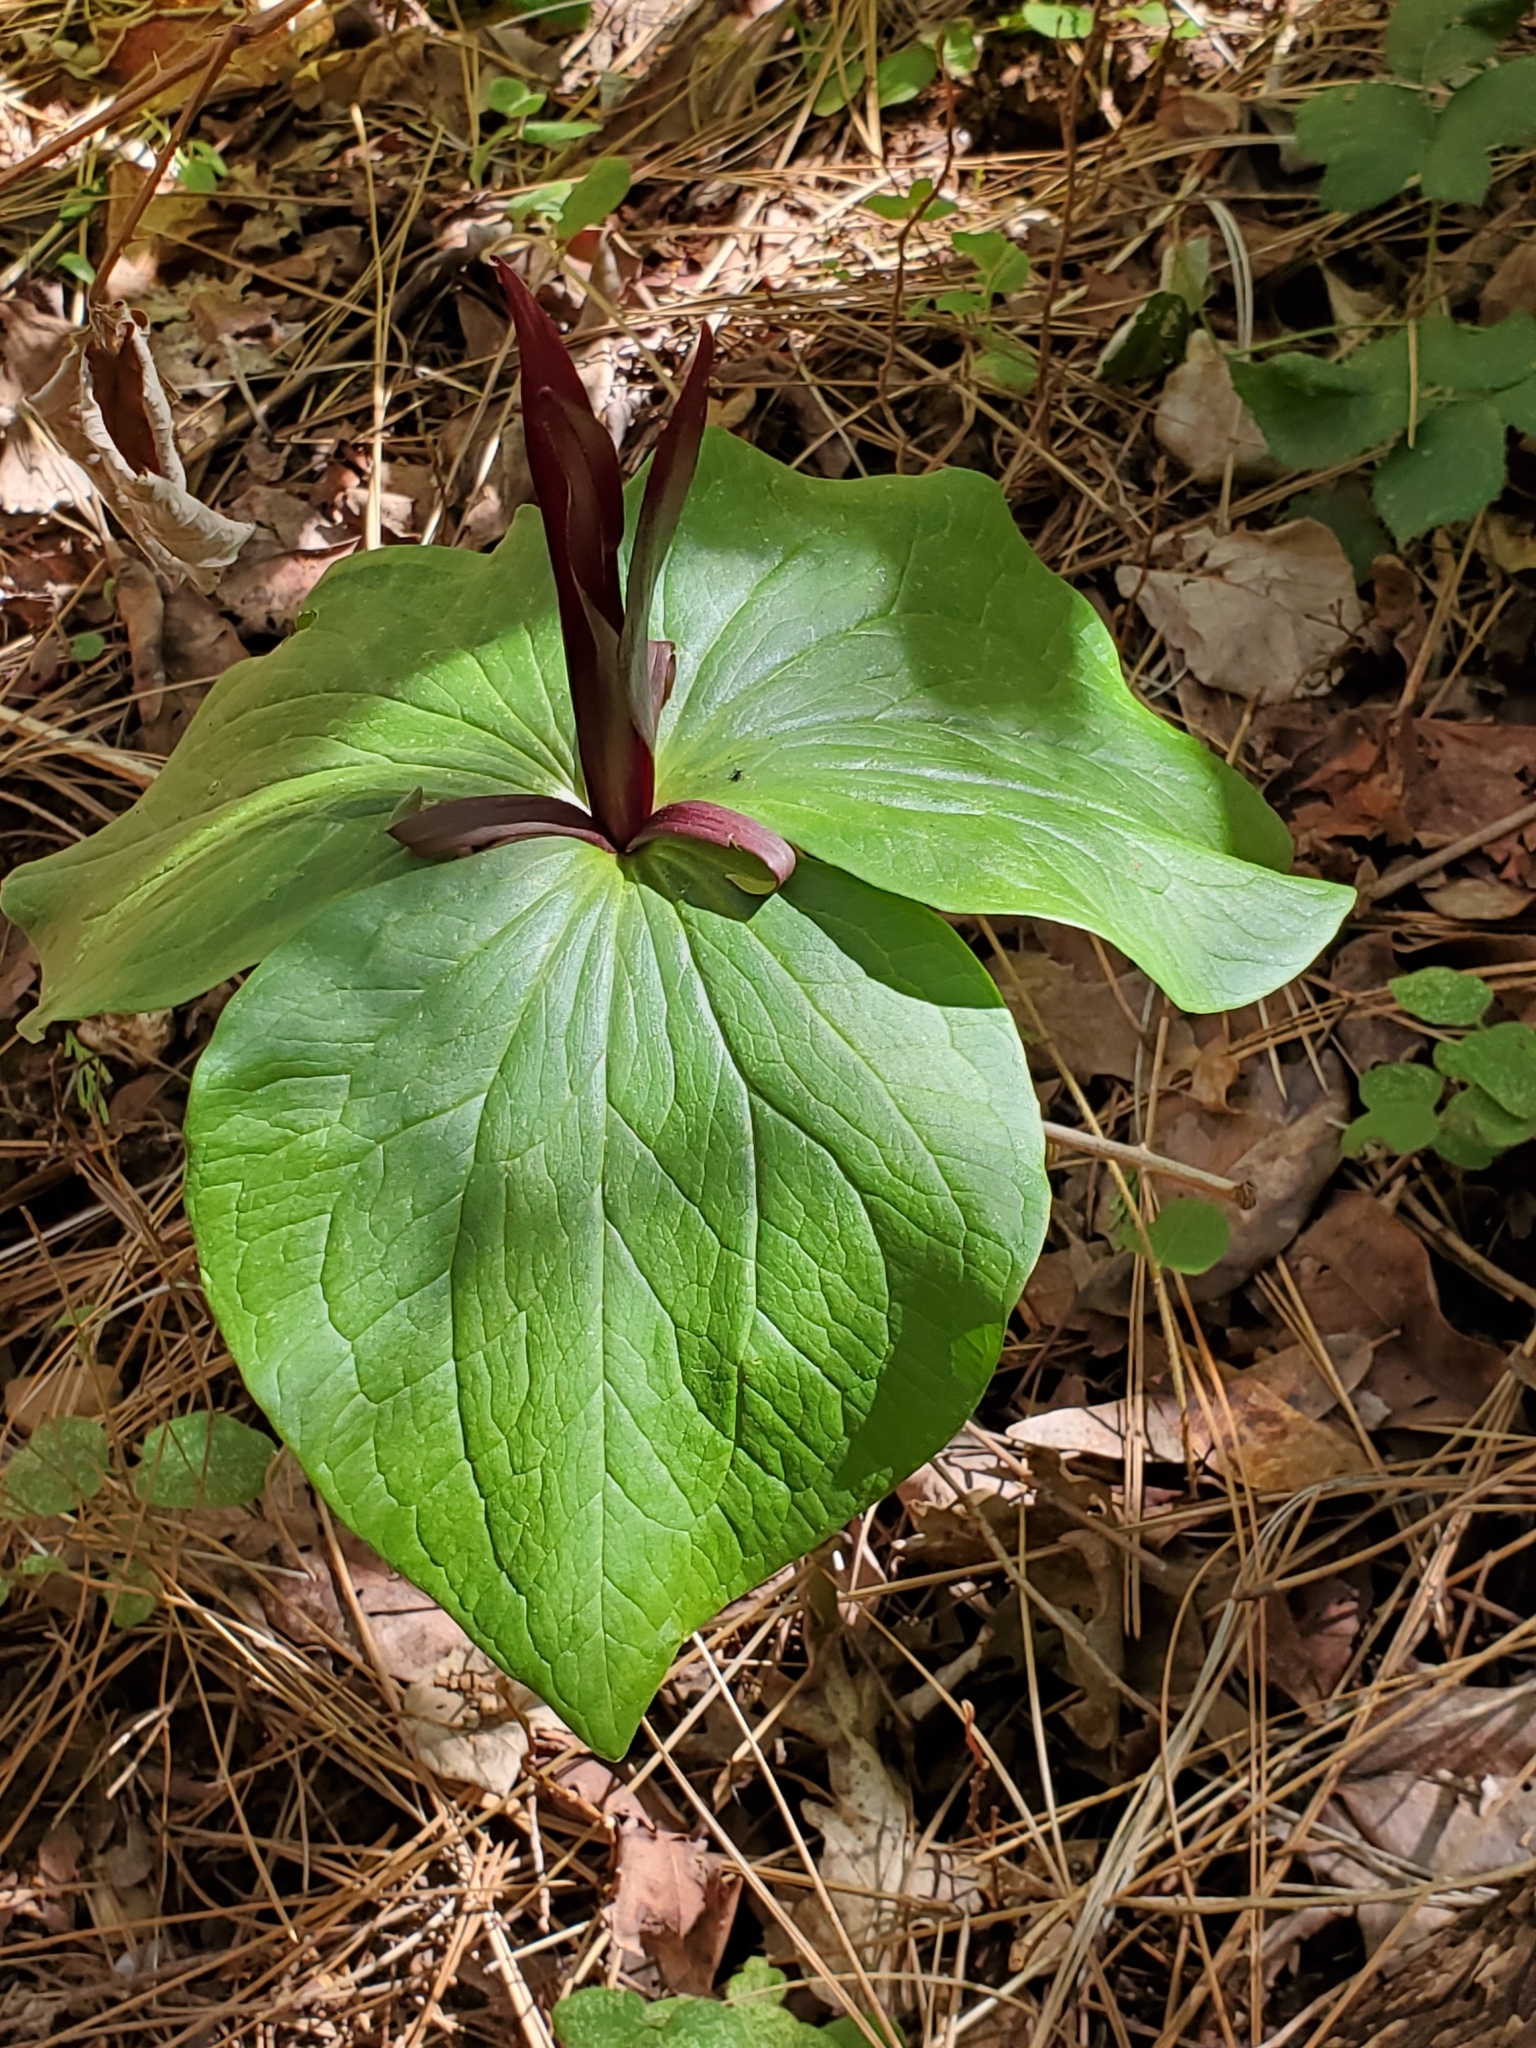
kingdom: Plantae
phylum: Tracheophyta
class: Liliopsida
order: Liliales
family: Melanthiaceae
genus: Trillium
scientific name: Trillium angustipetalum
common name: Narrow-petaled trillium
